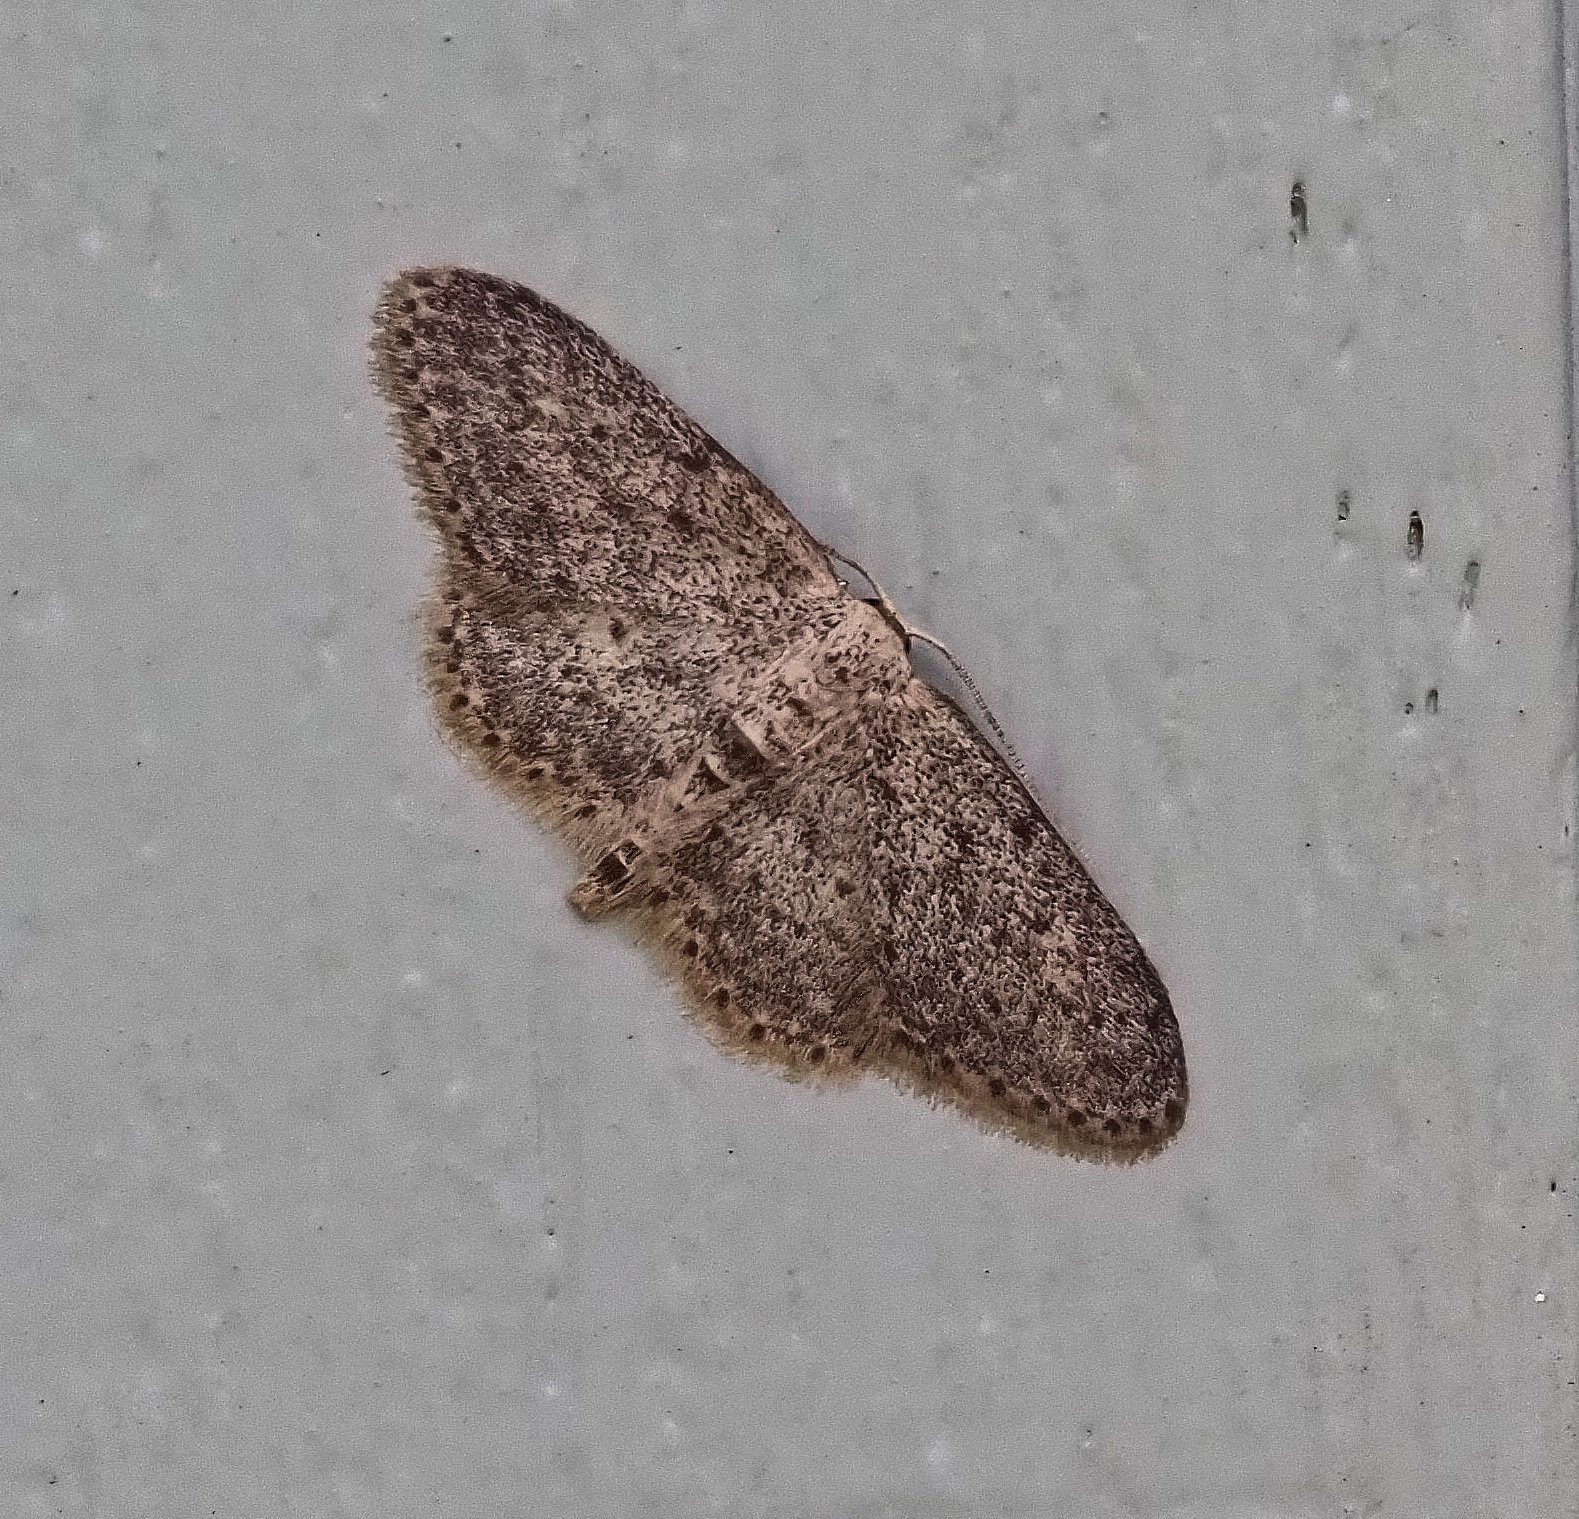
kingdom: Animalia
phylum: Arthropoda
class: Insecta
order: Lepidoptera
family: Geometridae
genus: Idaea
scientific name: Idaea seriata
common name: Small dusty wave
